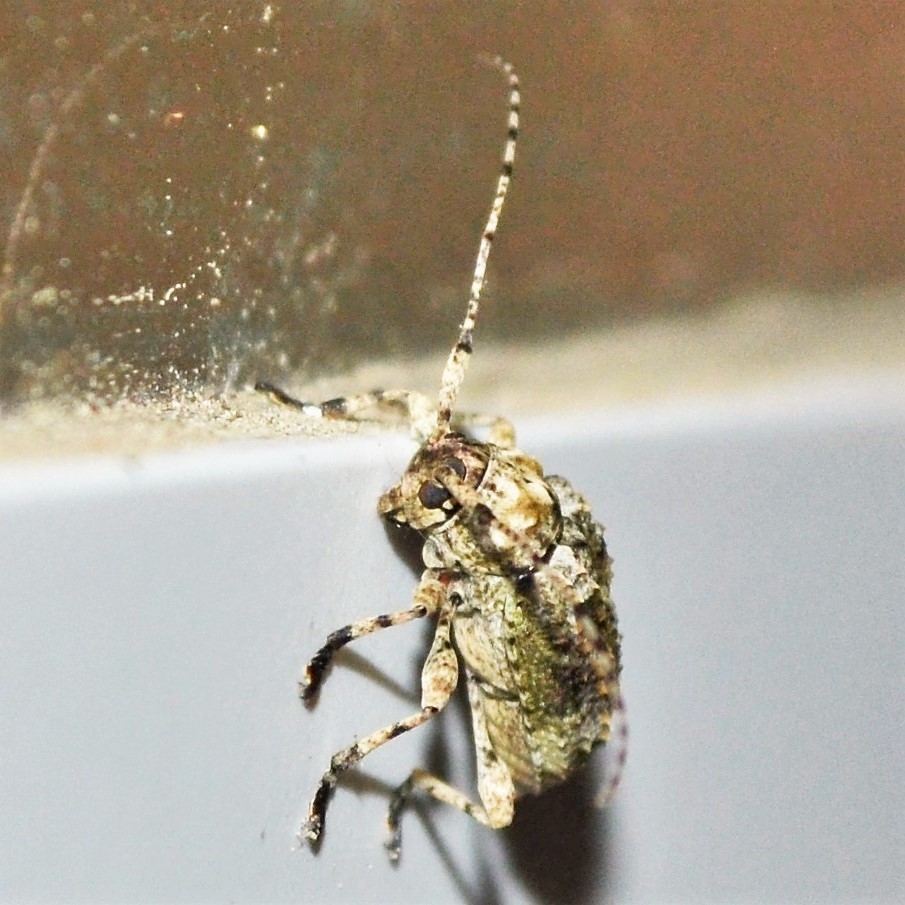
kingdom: Animalia
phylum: Arthropoda
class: Insecta
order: Coleoptera
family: Cerambycidae
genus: Leptostylus
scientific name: Leptostylus transversus
